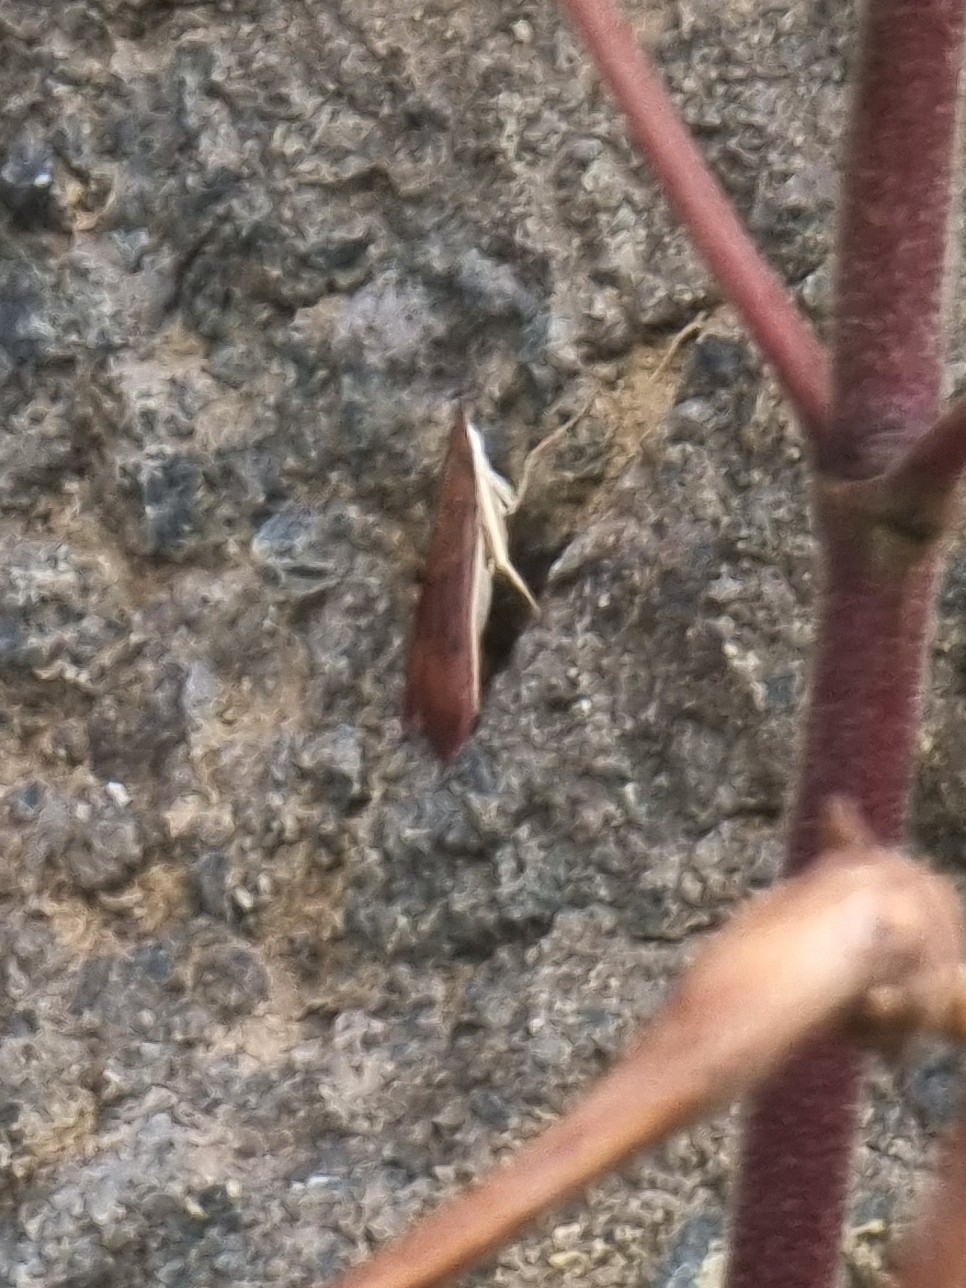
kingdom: Animalia
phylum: Arthropoda
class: Insecta
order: Lepidoptera
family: Crambidae
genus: Uresiphita
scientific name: Uresiphita gilvata
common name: Yellow-underwing pearl
